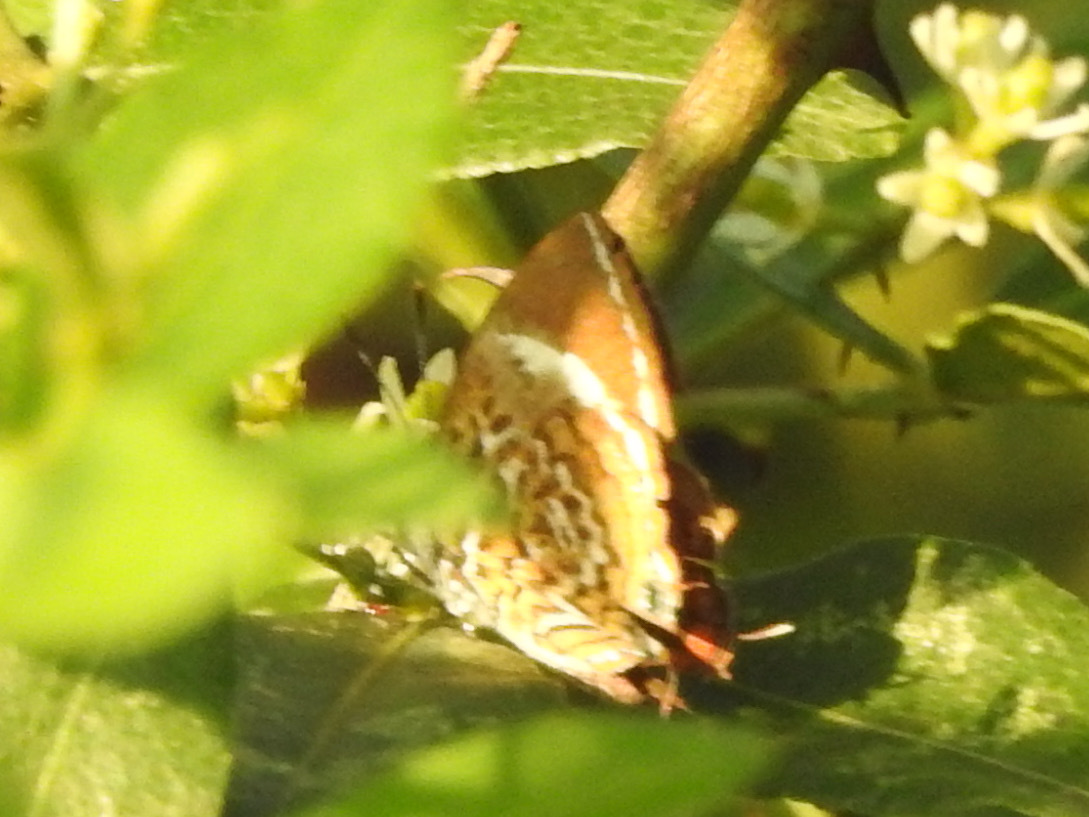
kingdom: Animalia
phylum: Arthropoda
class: Insecta
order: Lepidoptera
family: Lycaenidae
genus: Rathinda
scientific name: Rathinda amor
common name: Monkey puzzle
